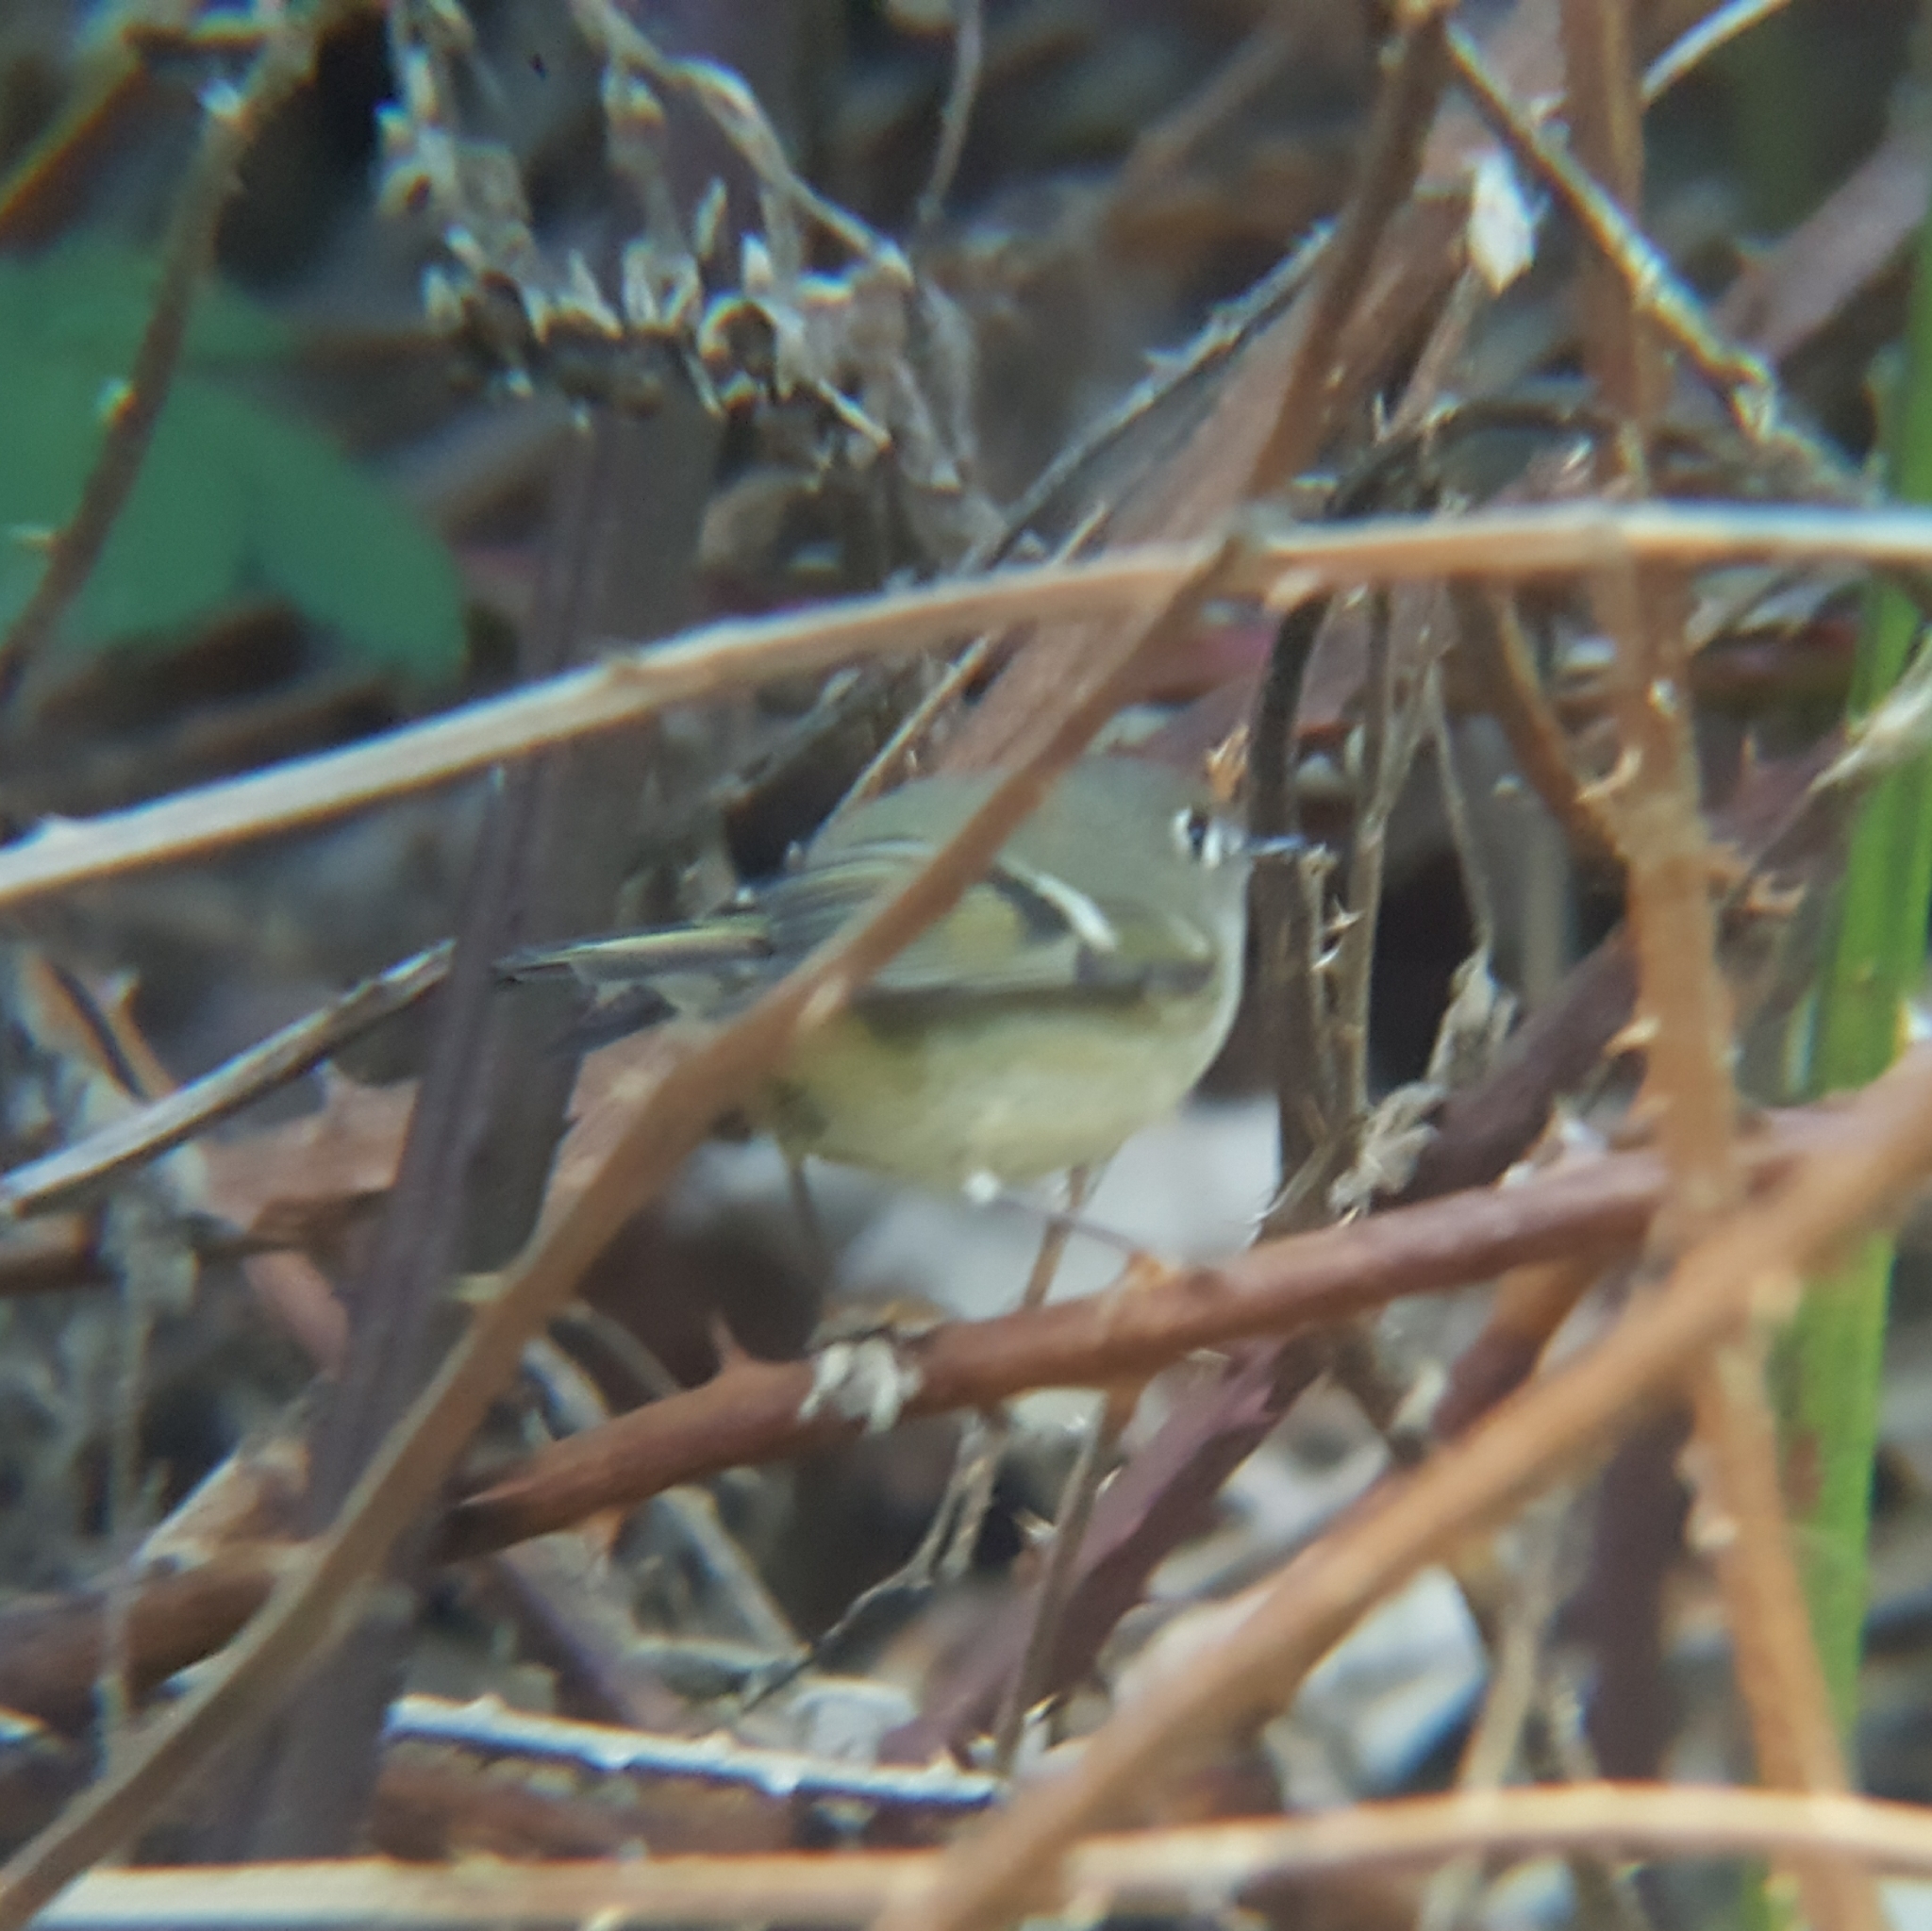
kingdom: Animalia
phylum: Chordata
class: Aves
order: Passeriformes
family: Regulidae
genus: Regulus
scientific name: Regulus calendula
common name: Ruby-crowned kinglet
